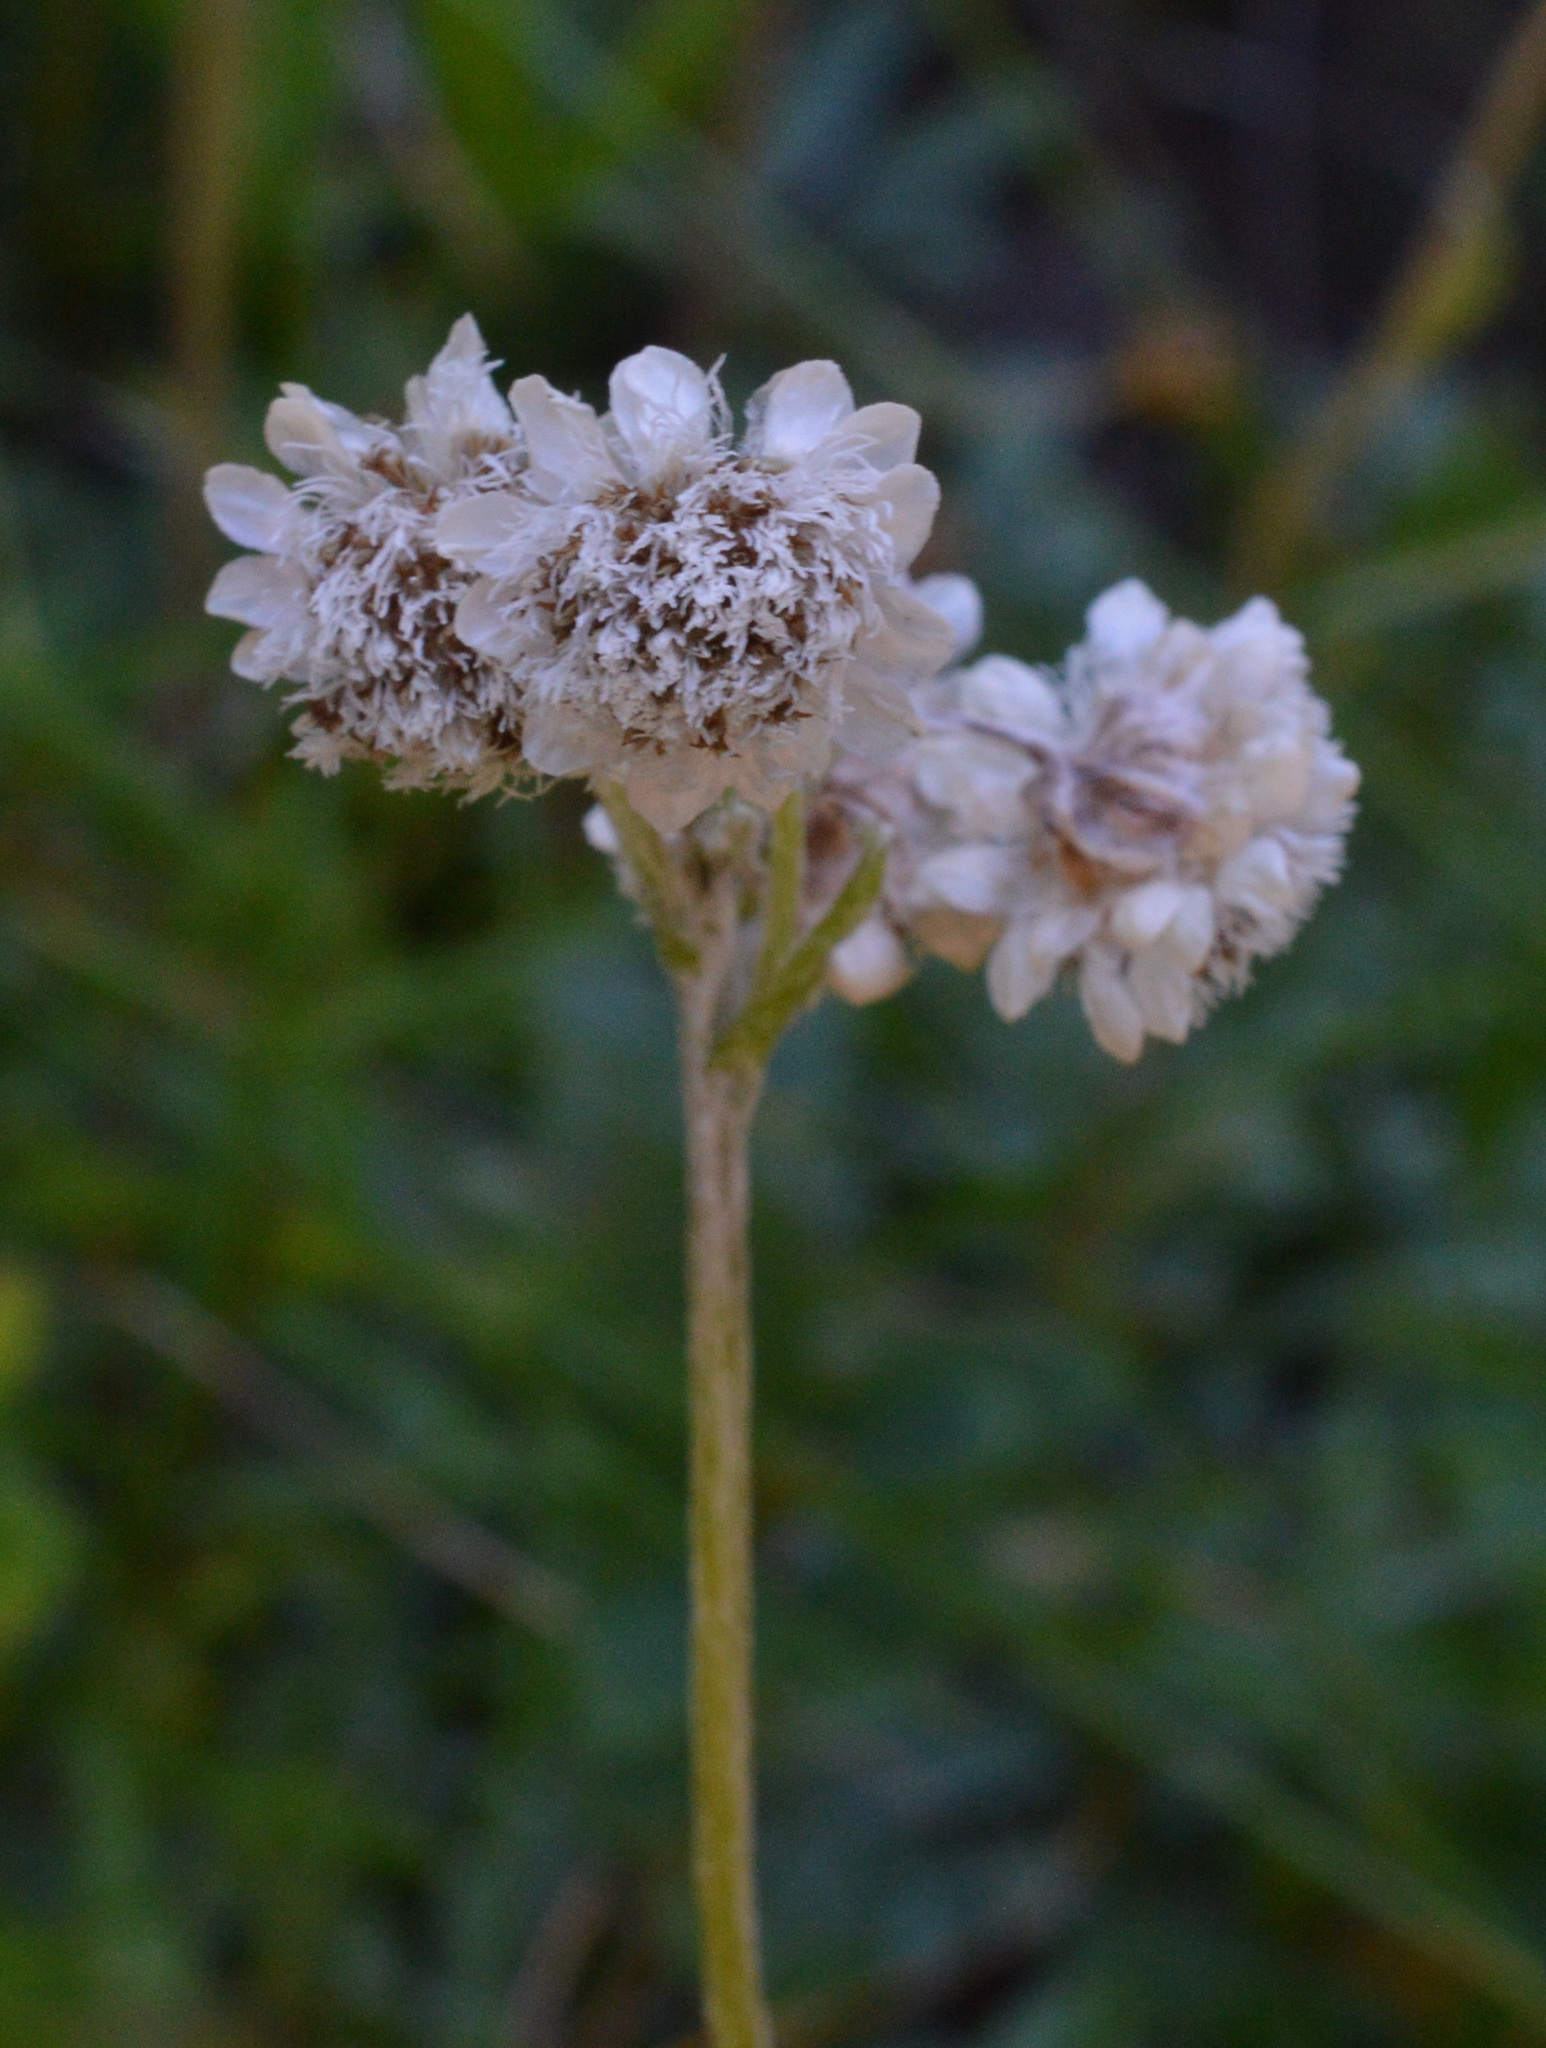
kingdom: Plantae
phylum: Tracheophyta
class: Magnoliopsida
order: Asterales
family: Asteraceae
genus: Antennaria
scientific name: Antennaria dioica
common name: Mountain everlasting
